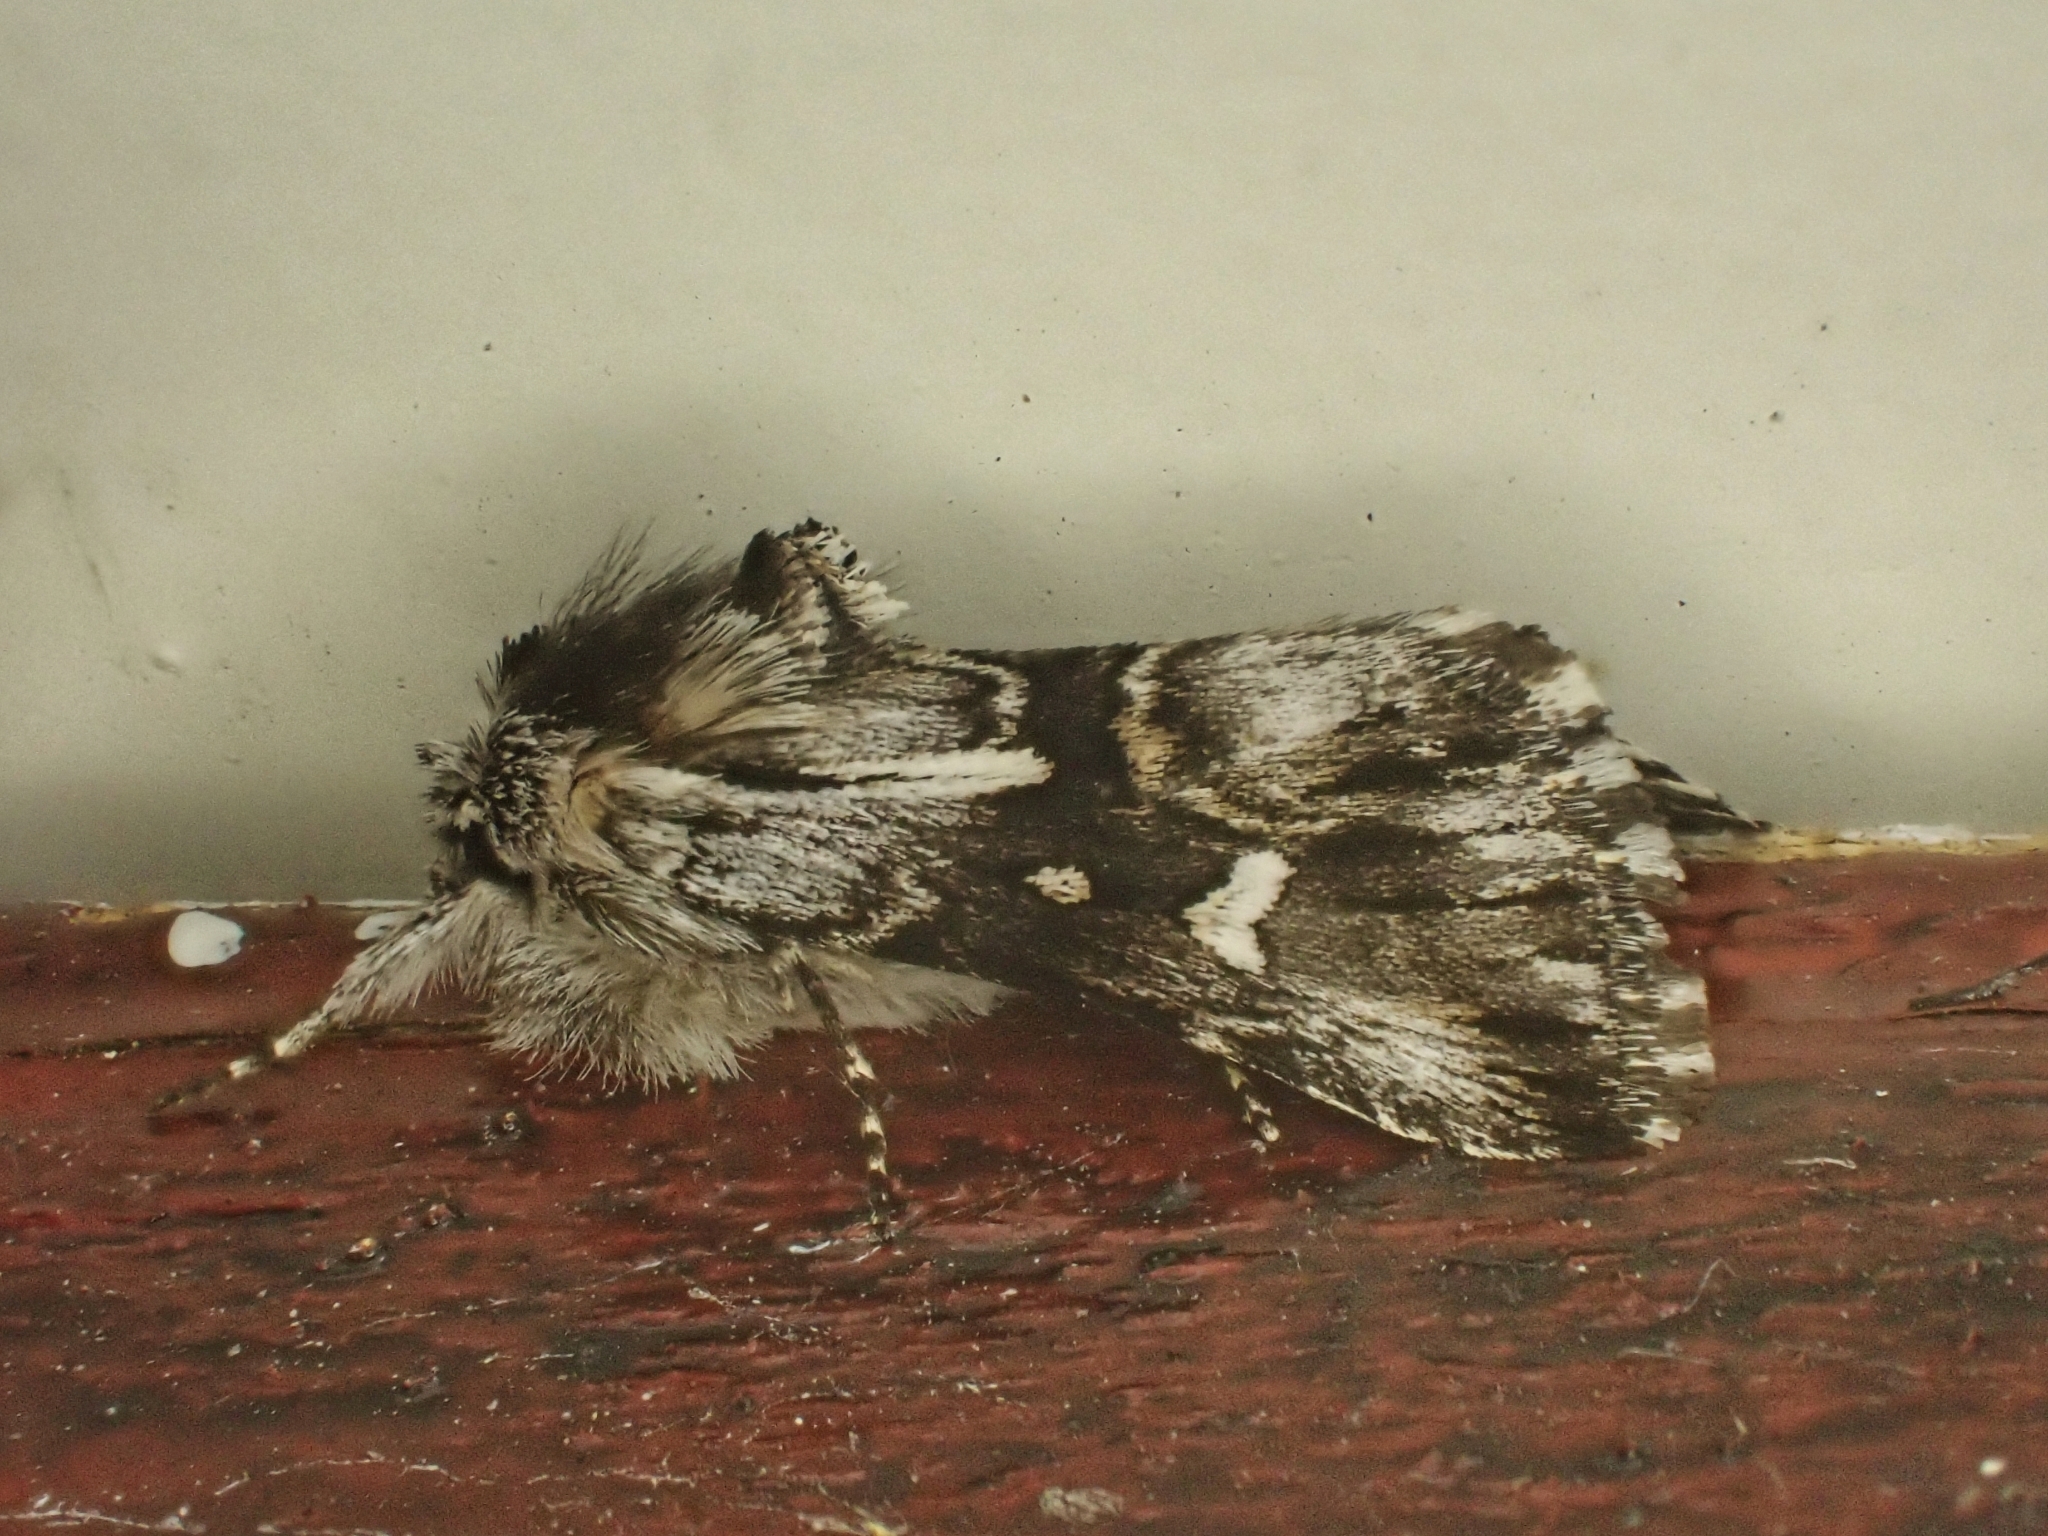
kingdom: Animalia
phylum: Arthropoda
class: Insecta
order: Lepidoptera
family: Noctuidae
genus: Calophasia
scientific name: Calophasia lunula
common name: Toadflax brocade
